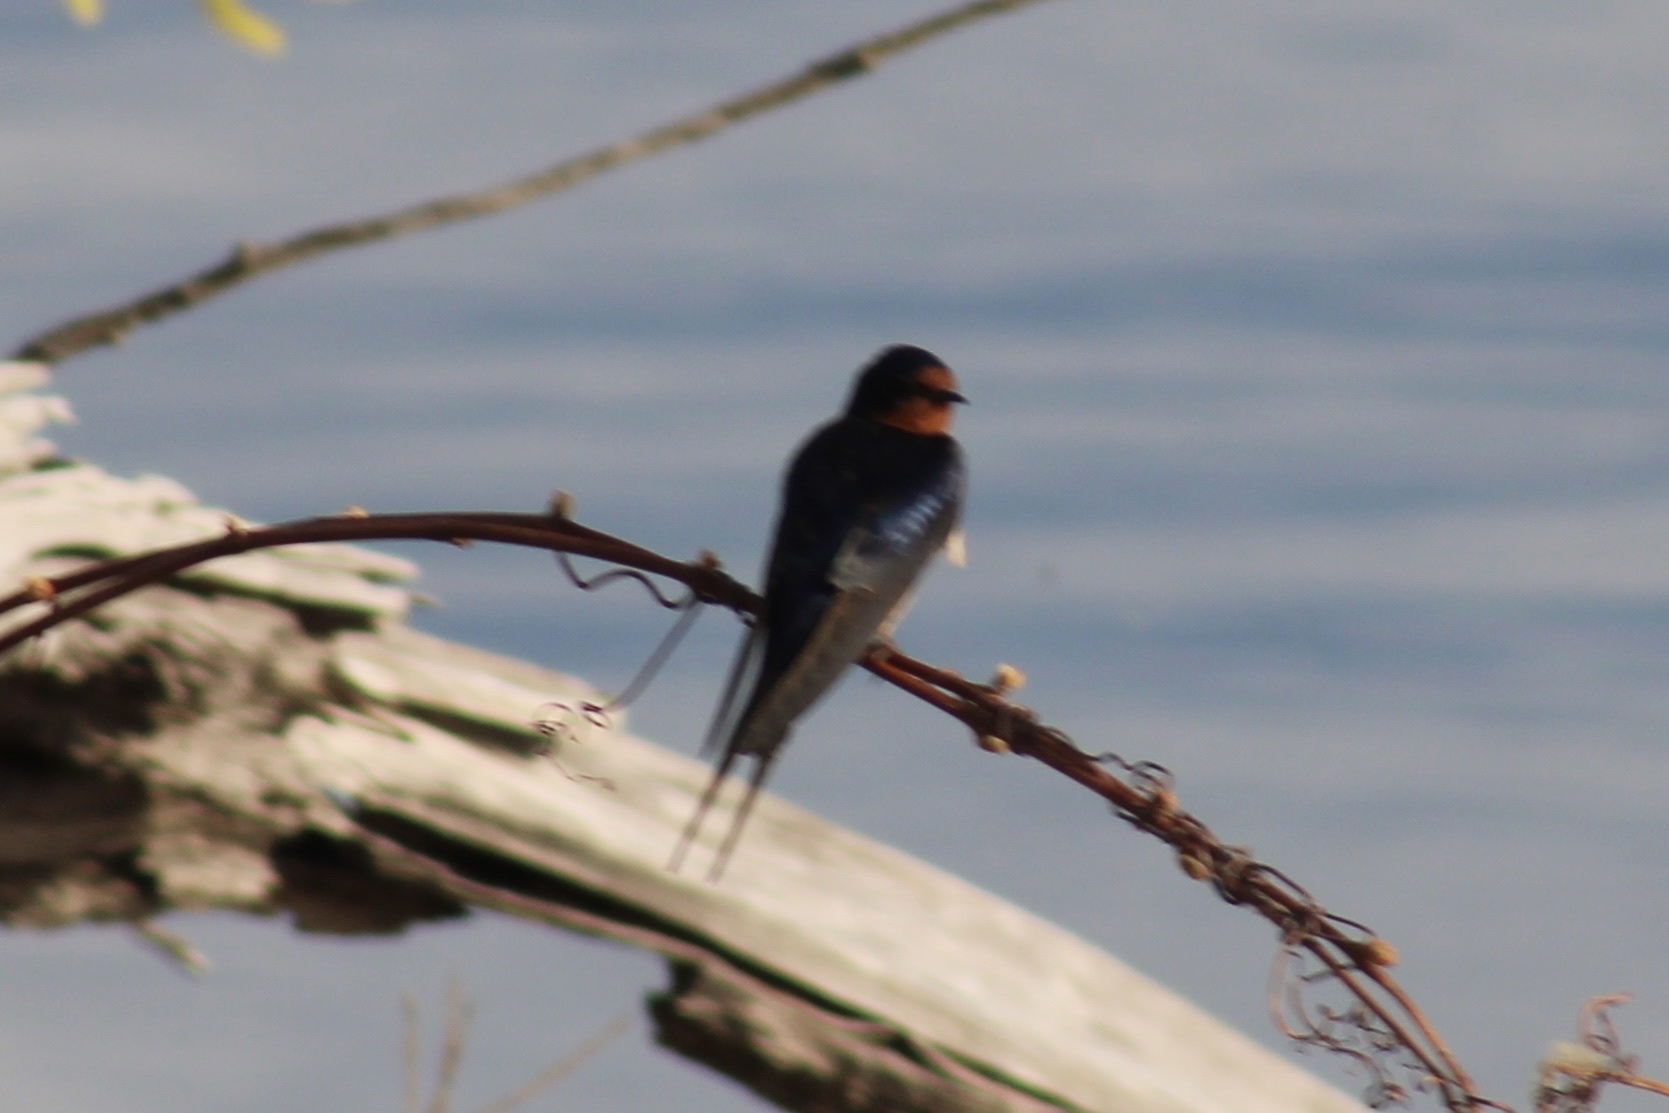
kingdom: Animalia
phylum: Chordata
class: Aves
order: Passeriformes
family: Hirundinidae
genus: Hirundo
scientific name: Hirundo rustica
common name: Barn swallow
